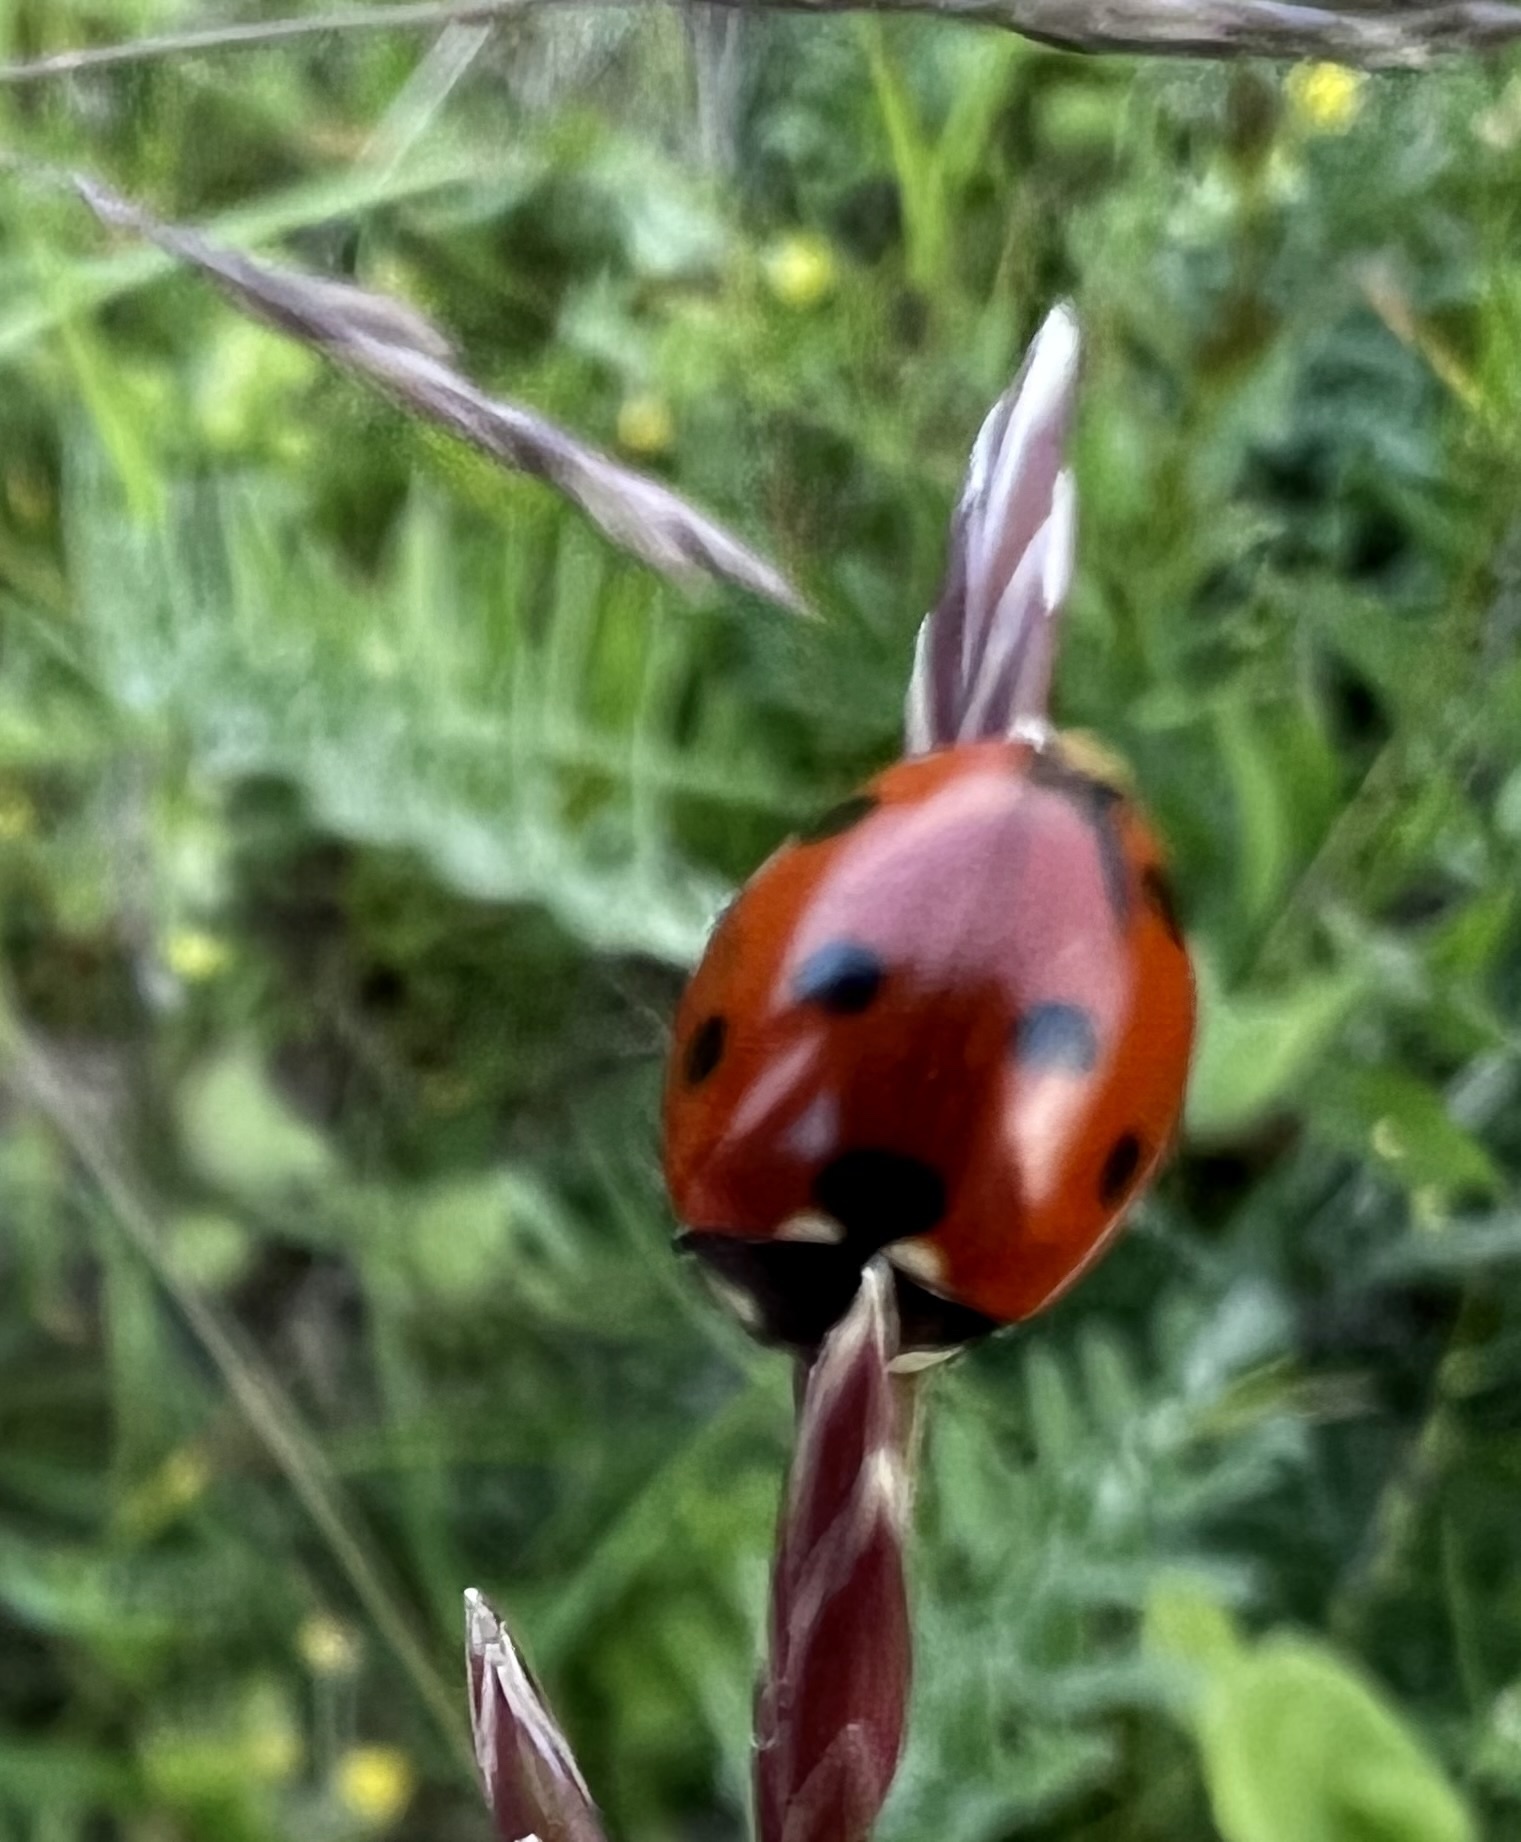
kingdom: Animalia
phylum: Arthropoda
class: Insecta
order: Coleoptera
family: Coccinellidae
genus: Coccinella
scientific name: Coccinella septempunctata
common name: Sevenspotted lady beetle
